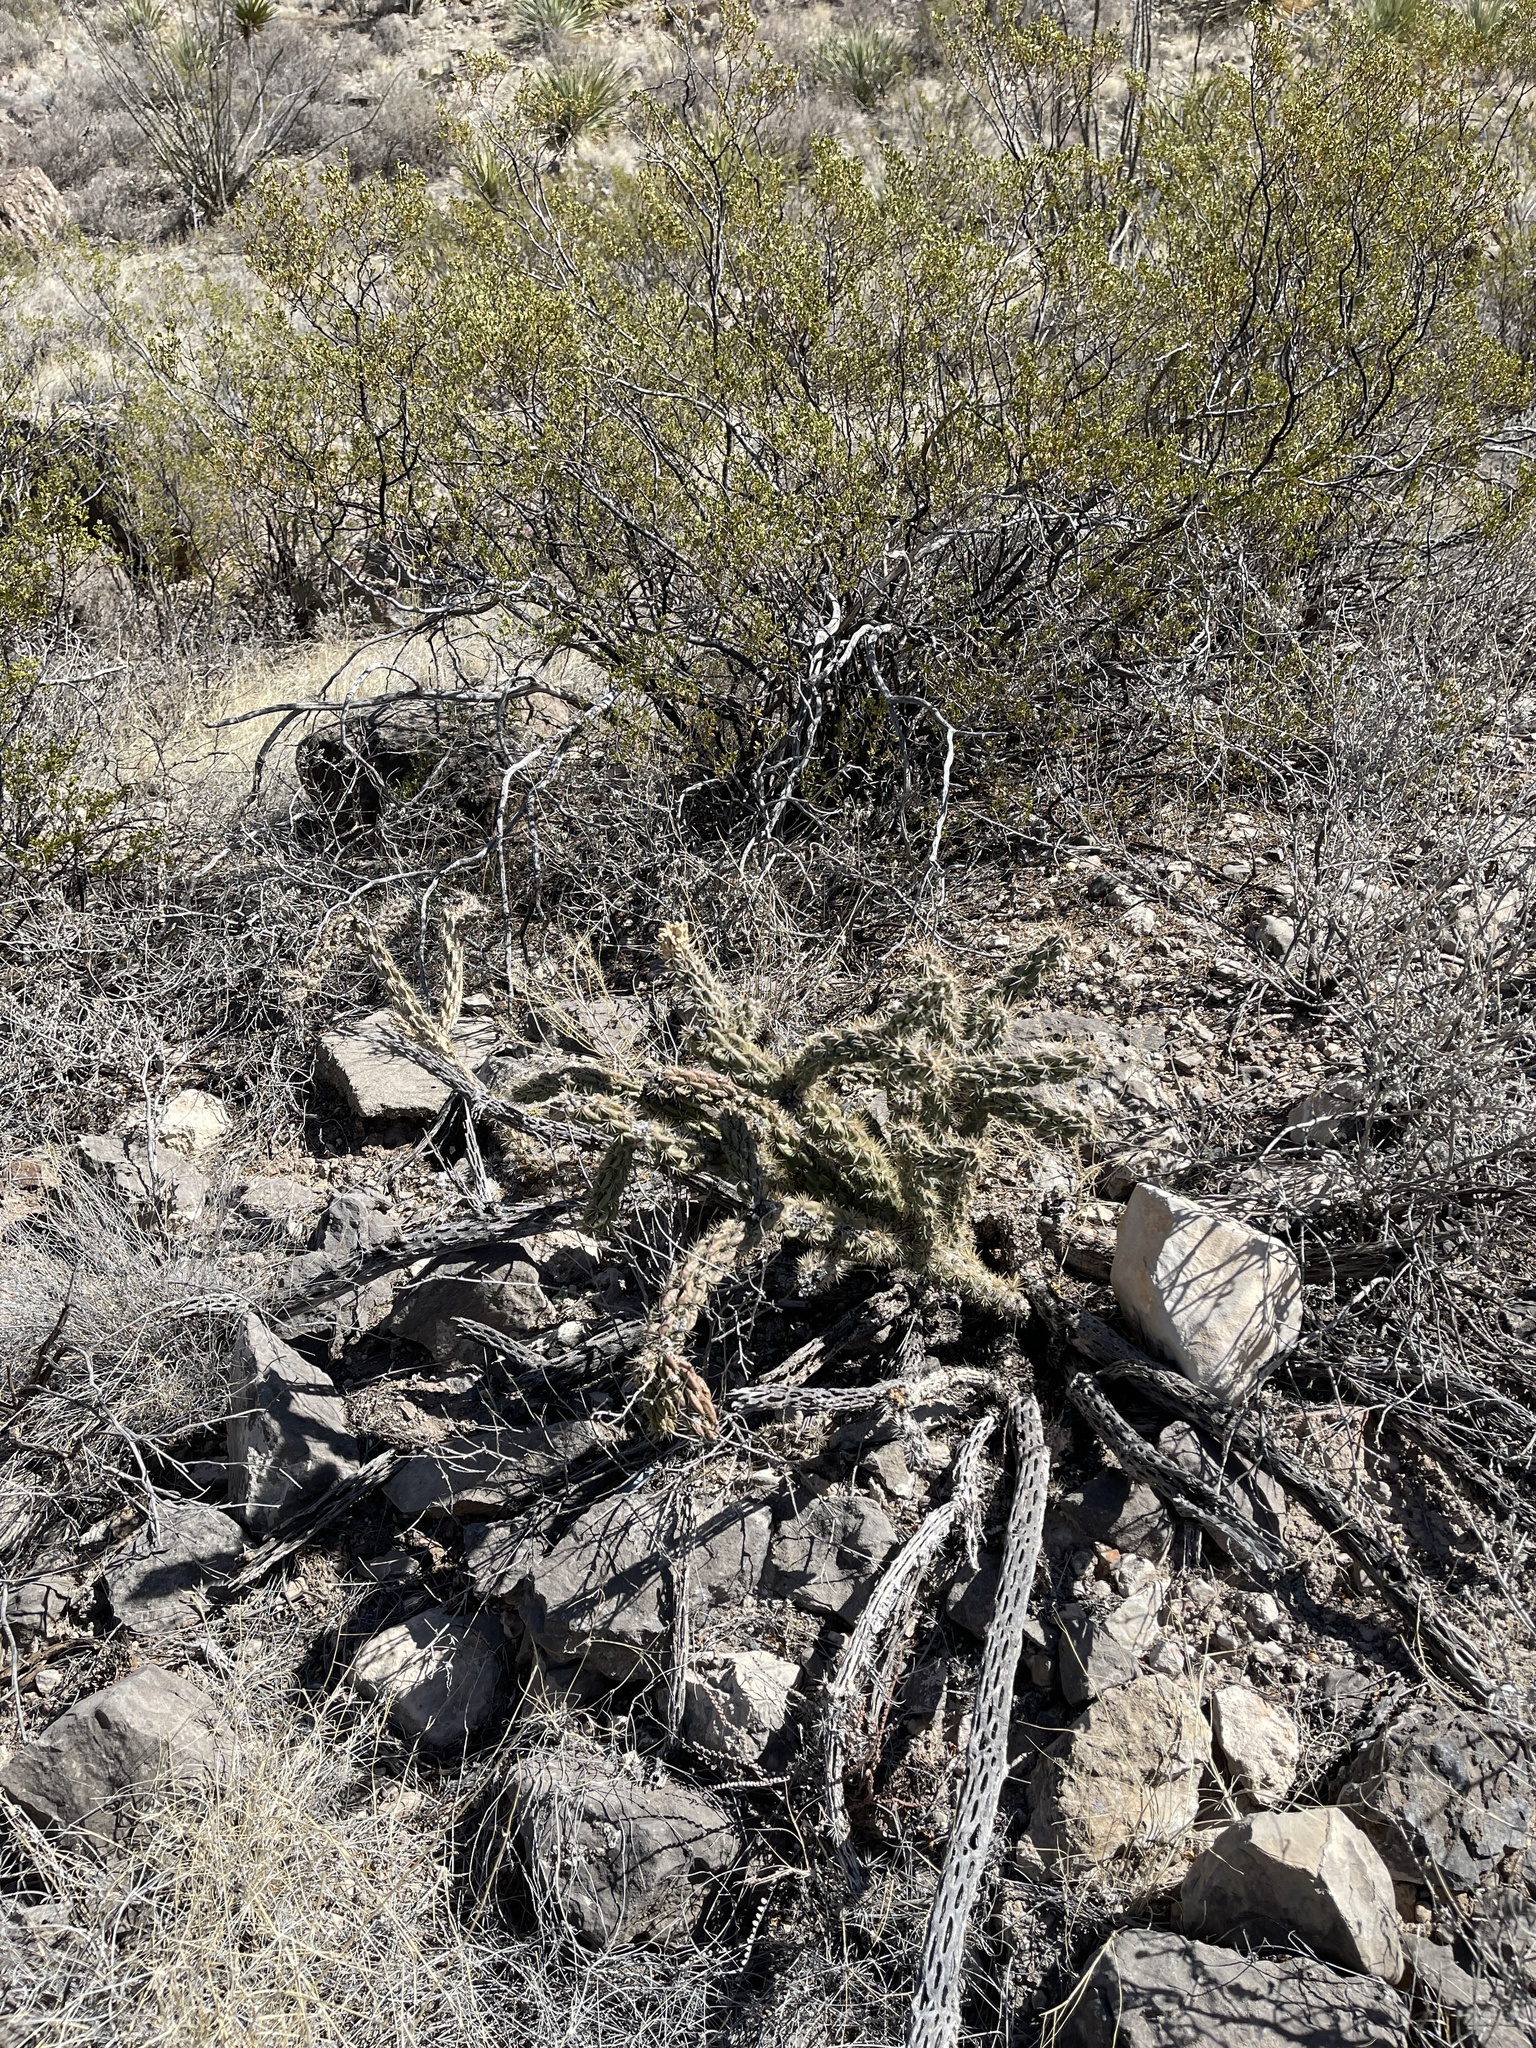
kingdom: Plantae
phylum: Tracheophyta
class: Magnoliopsida
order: Caryophyllales
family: Cactaceae
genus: Cylindropuntia
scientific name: Cylindropuntia imbricata
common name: Candelabrum cactus
